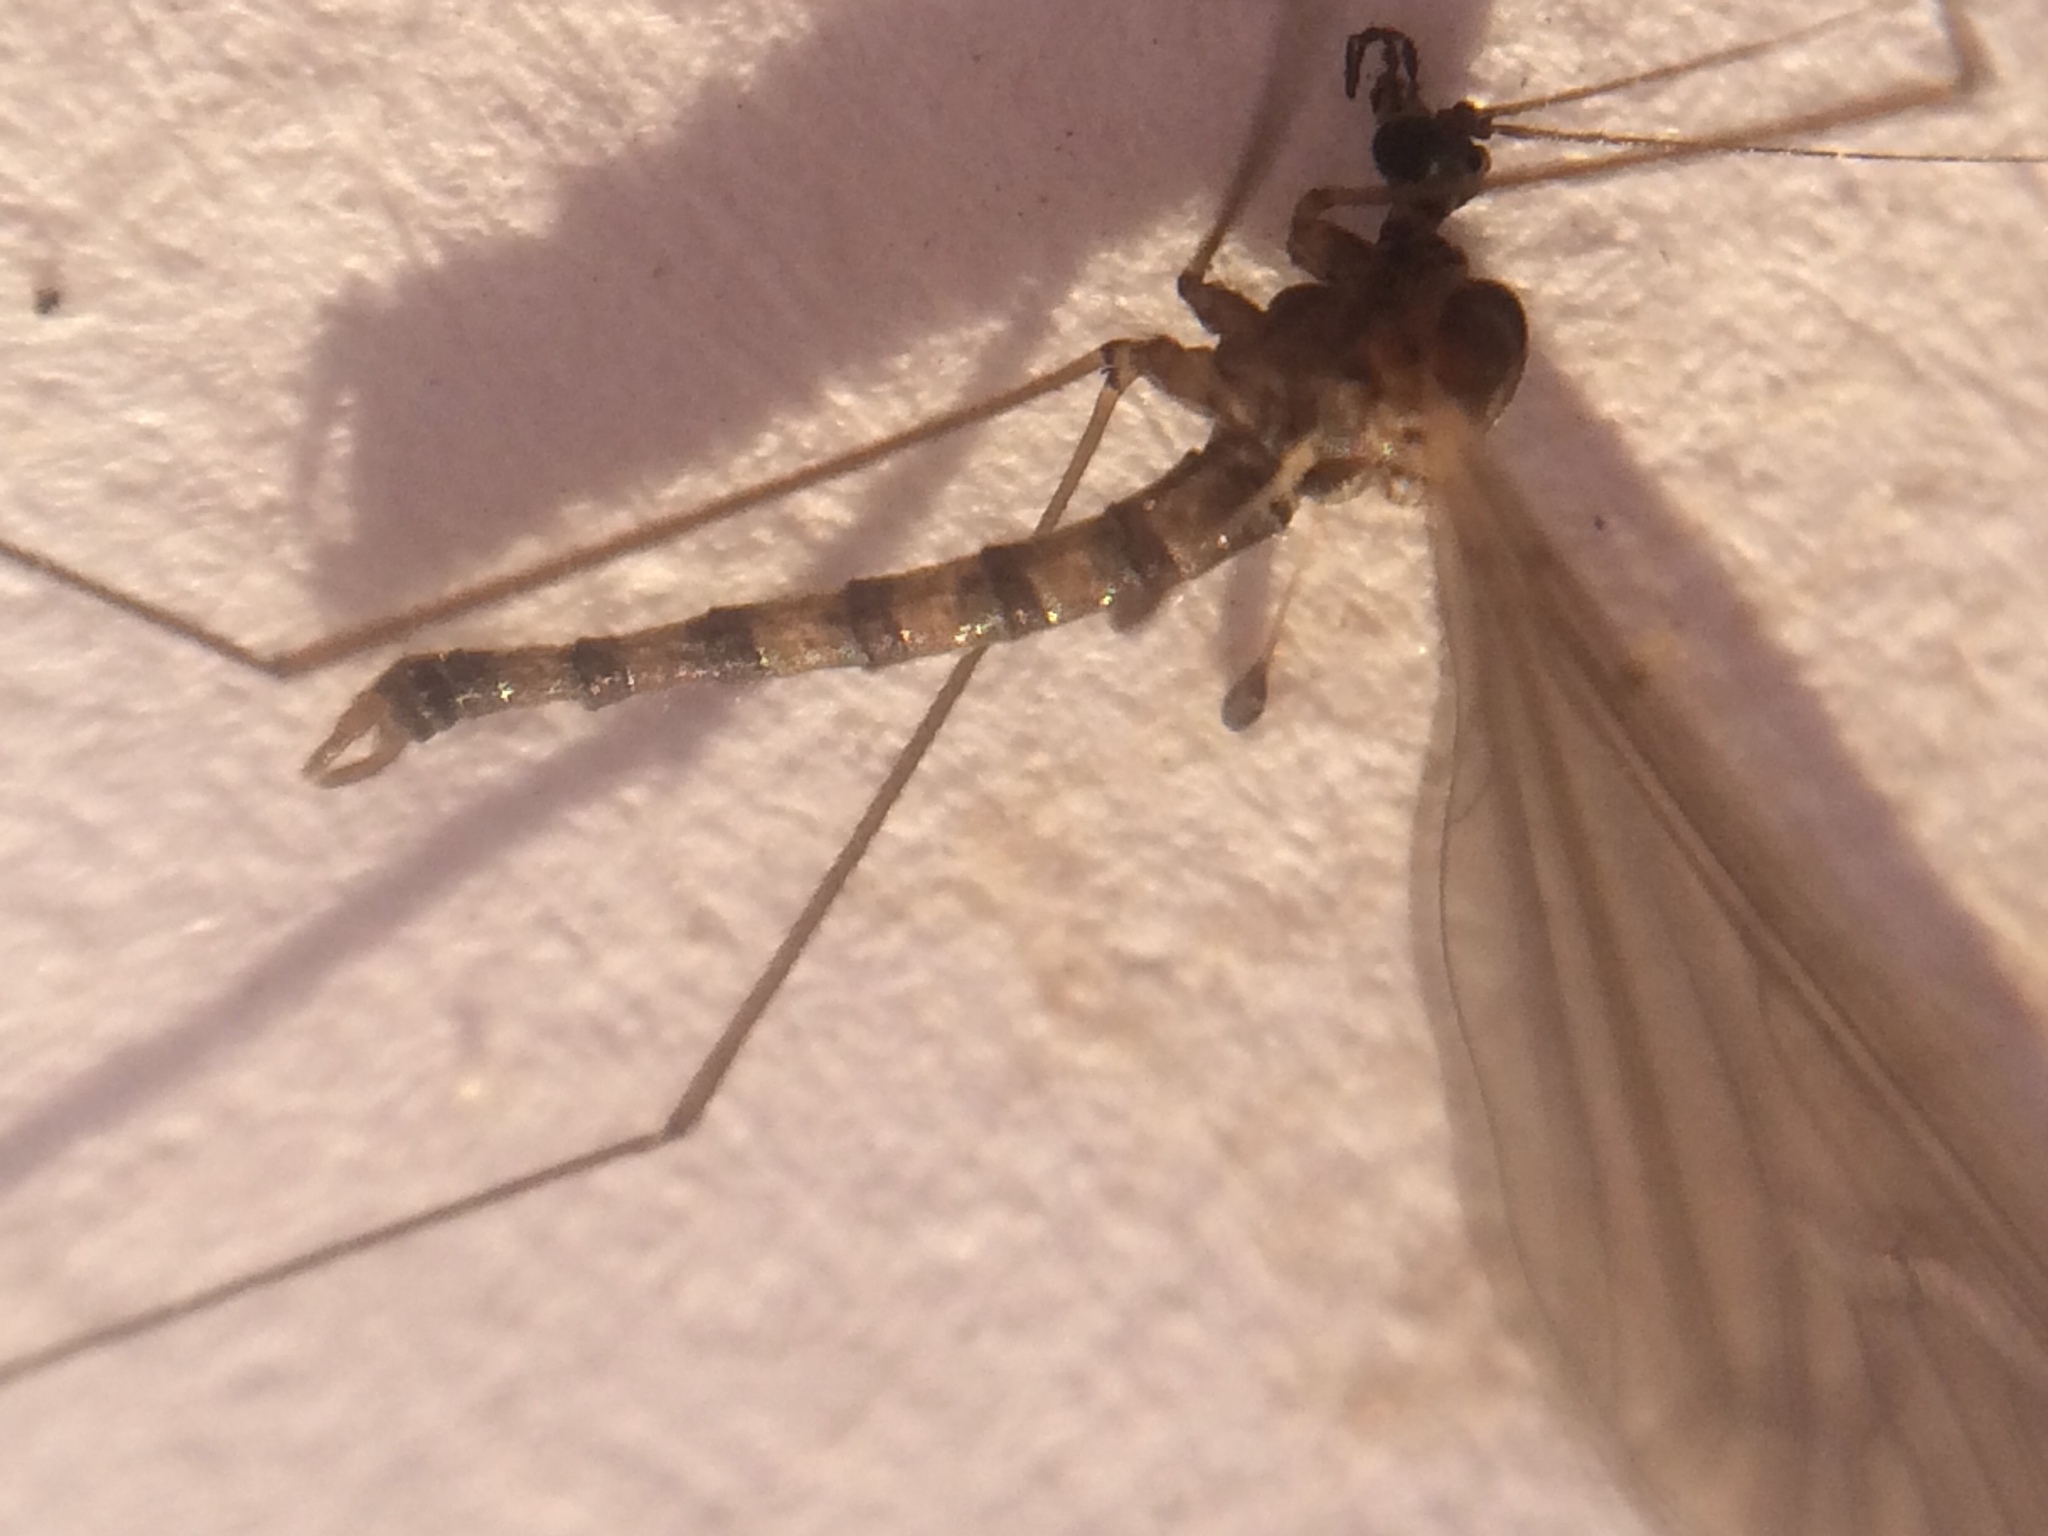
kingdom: Animalia
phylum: Arthropoda
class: Insecta
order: Diptera
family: Trichoceridae
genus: Trichocera
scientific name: Trichocera annulata
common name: Winter gnat
